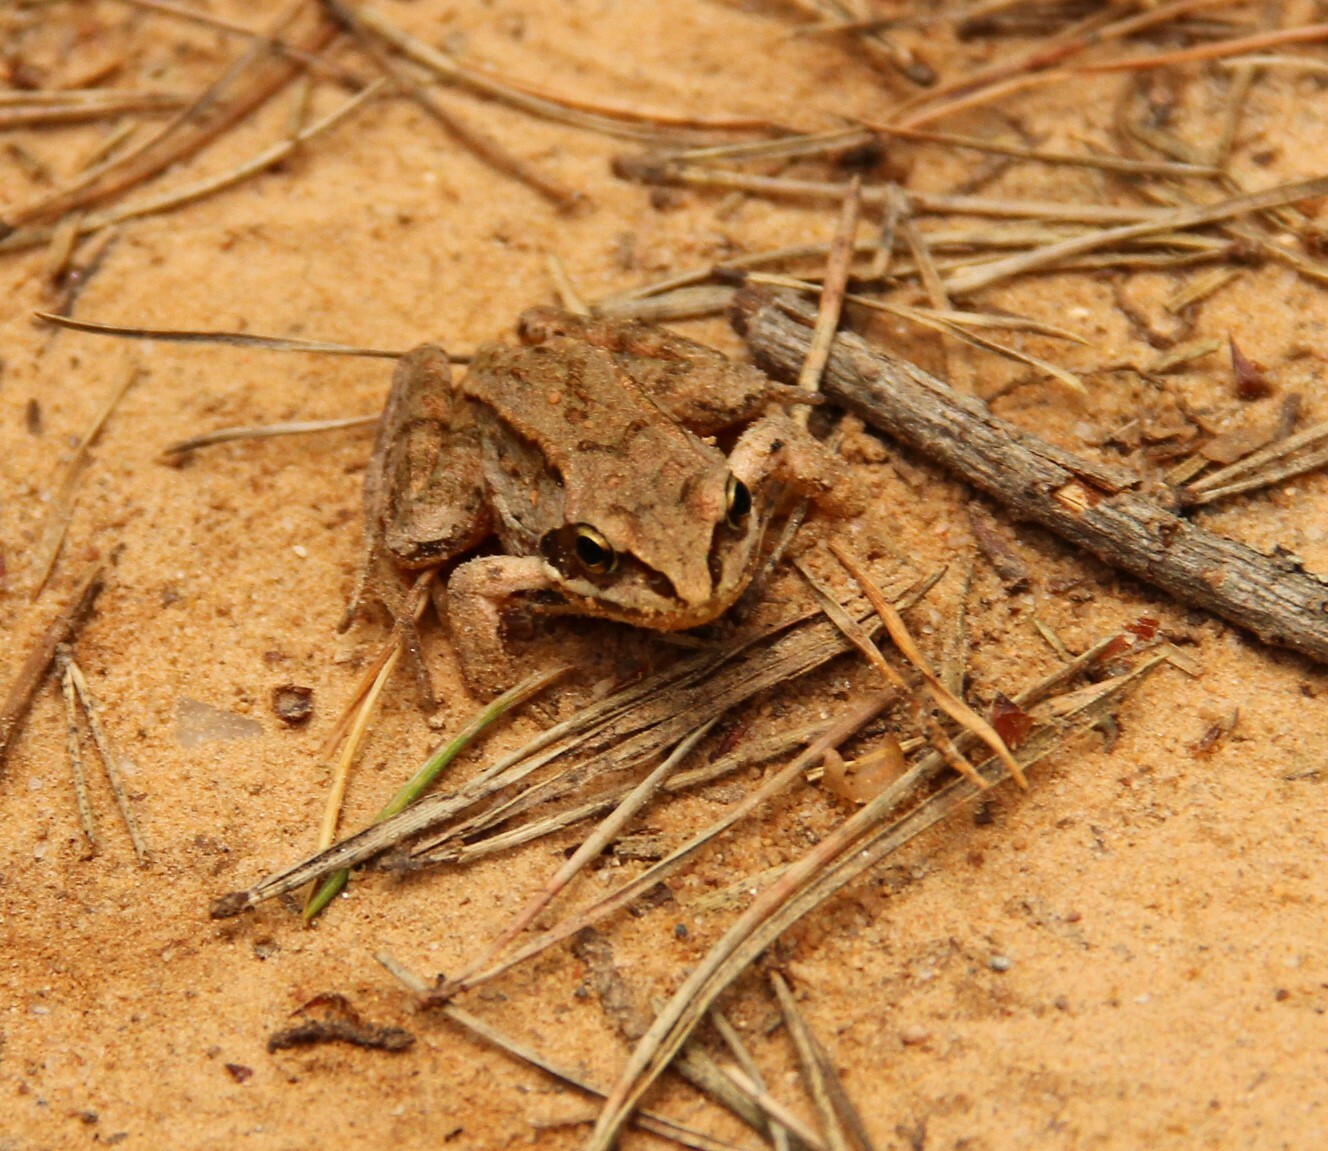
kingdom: Animalia
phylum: Chordata
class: Amphibia
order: Anura
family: Ranidae
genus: Rana
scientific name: Rana arvalis
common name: Moor frog
